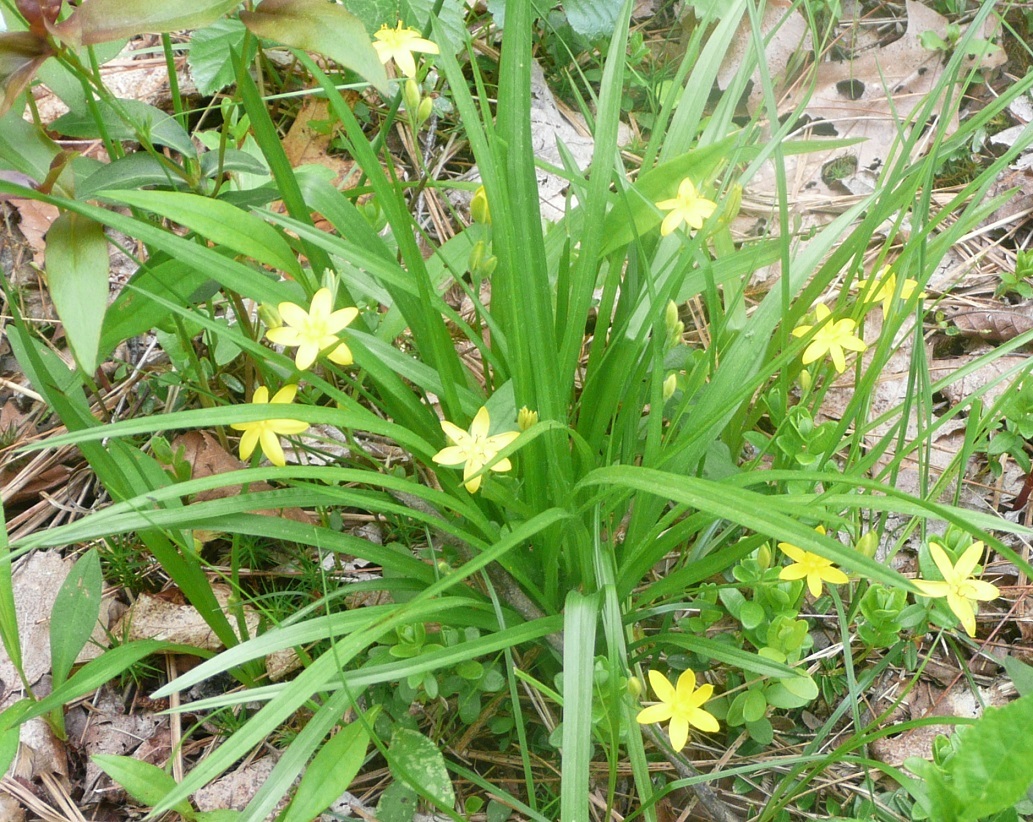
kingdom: Plantae
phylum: Tracheophyta
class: Liliopsida
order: Asparagales
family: Hypoxidaceae
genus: Hypoxis
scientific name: Hypoxis hirsuta
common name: Common goldstar
